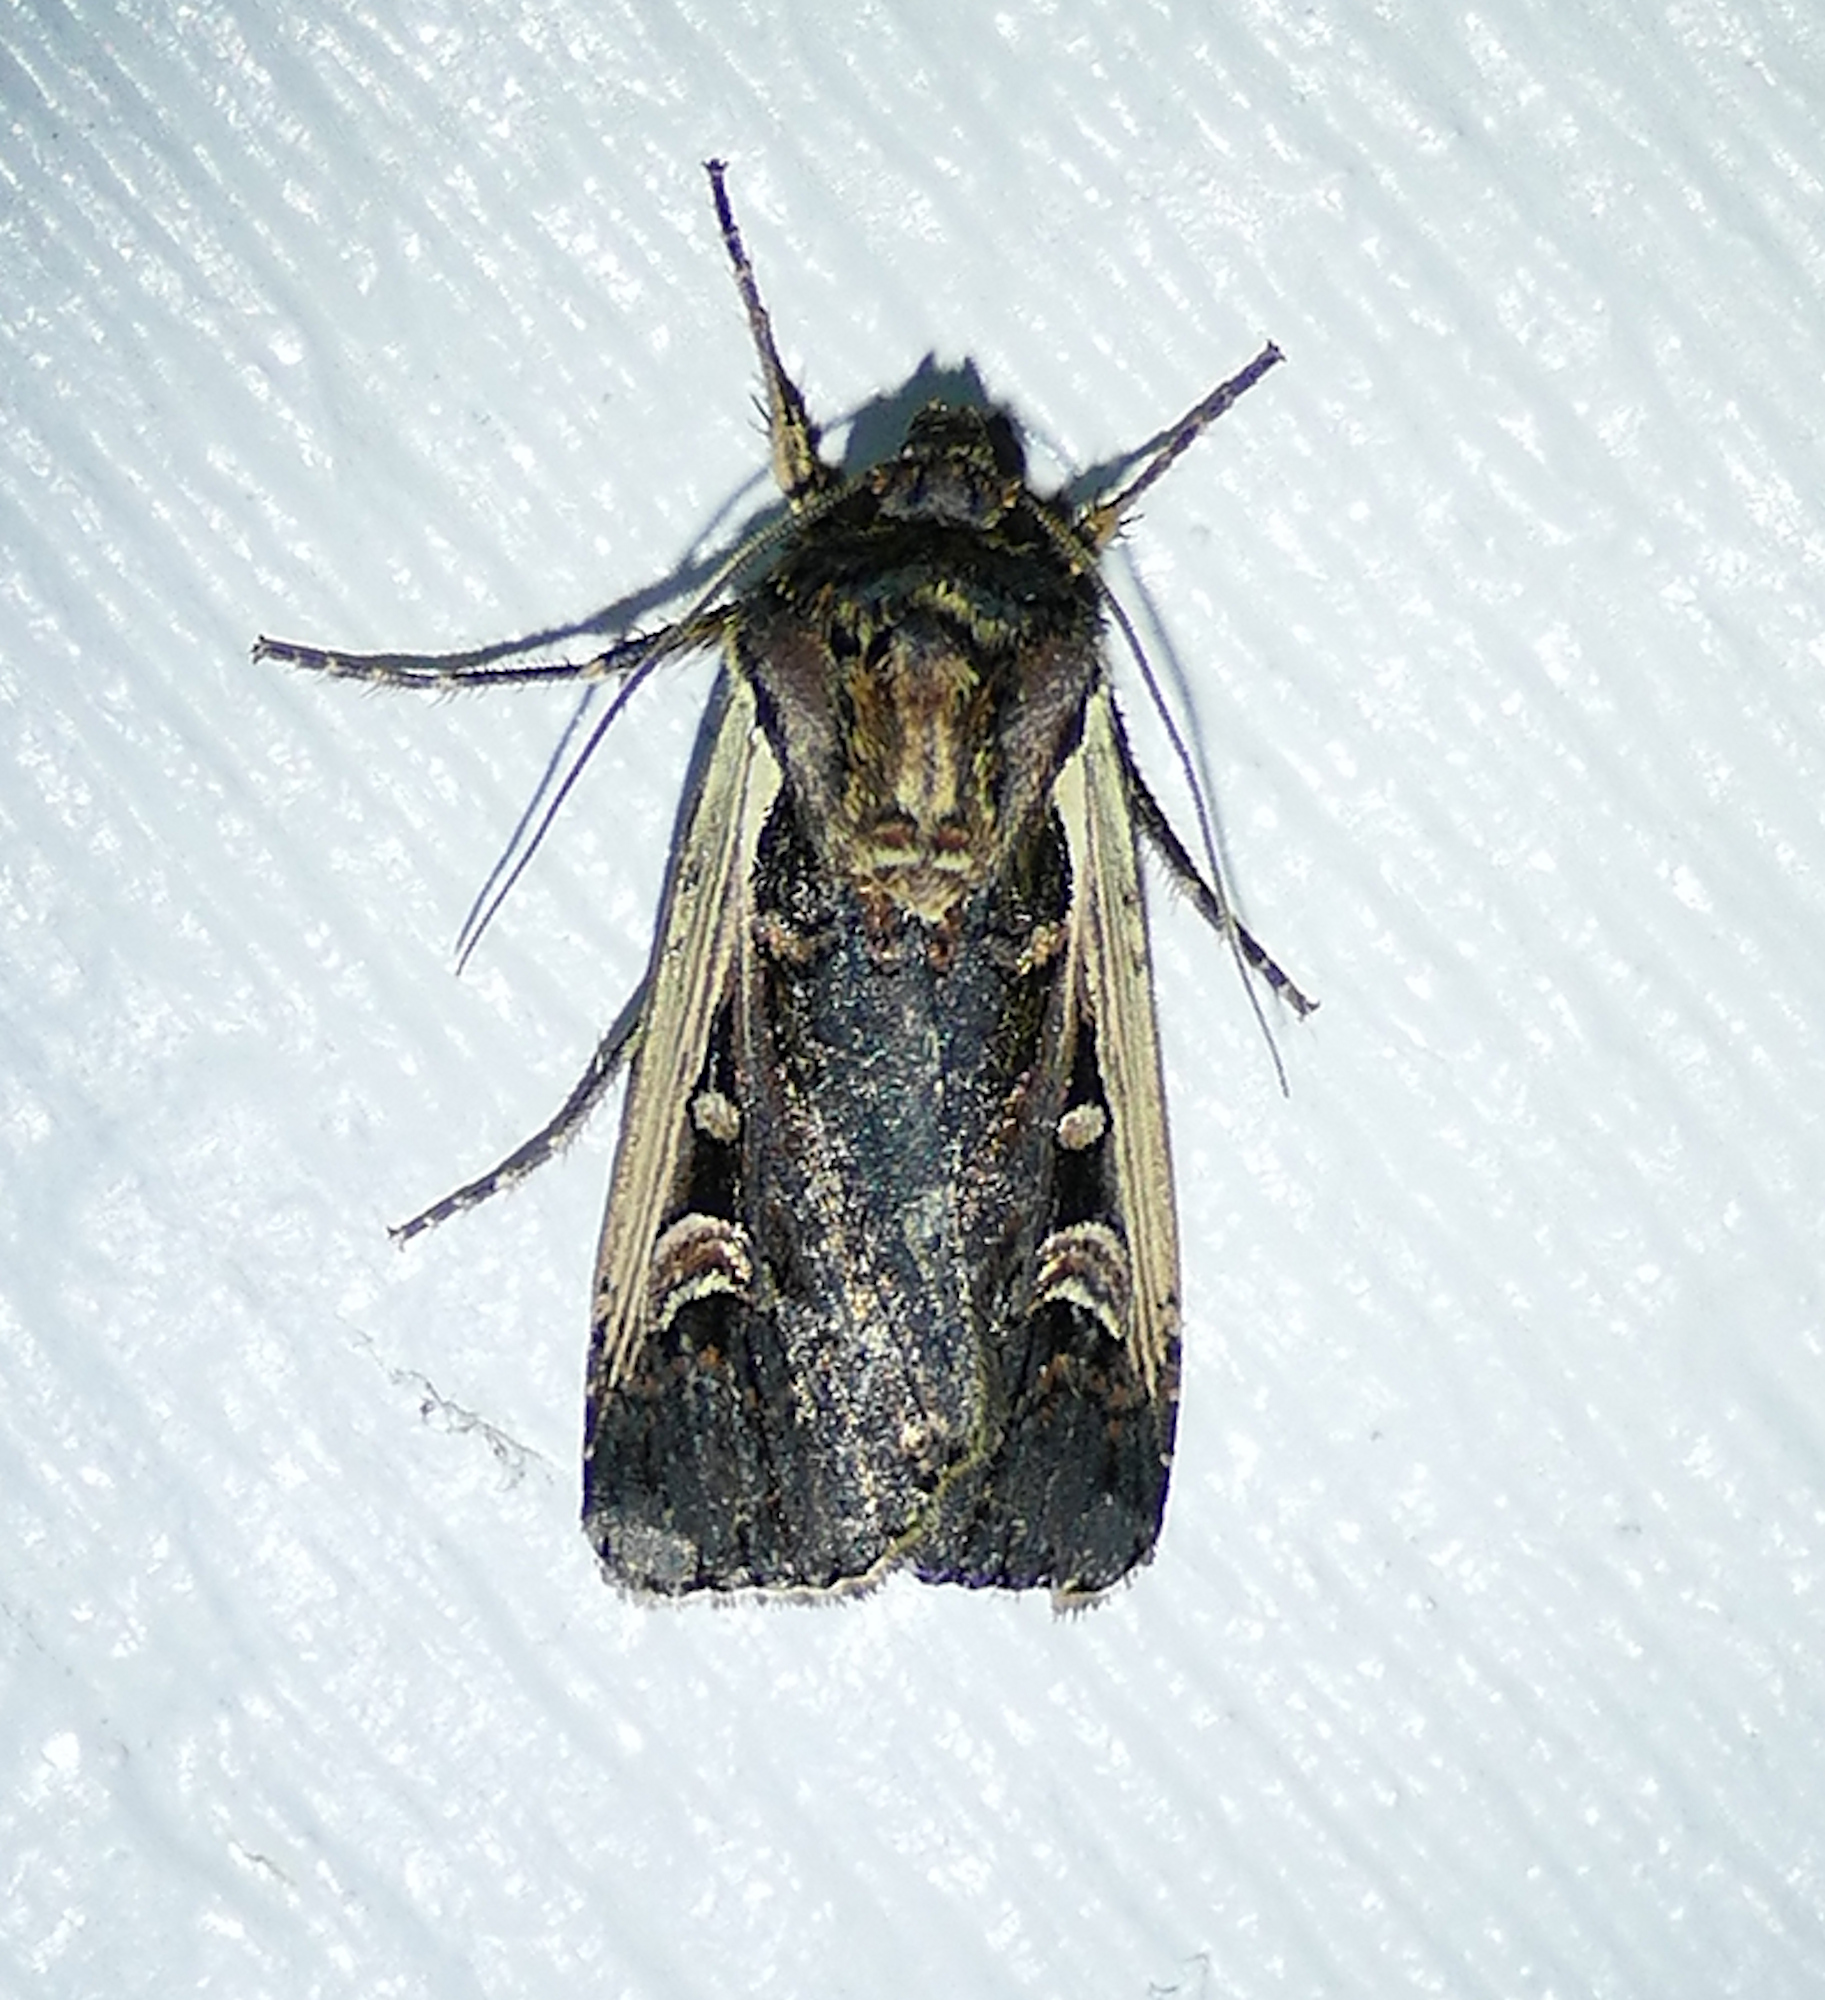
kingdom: Animalia
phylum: Arthropoda
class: Insecta
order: Lepidoptera
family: Noctuidae
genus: Striacosta
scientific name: Striacosta albicosta
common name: Western bean cutworm moth
